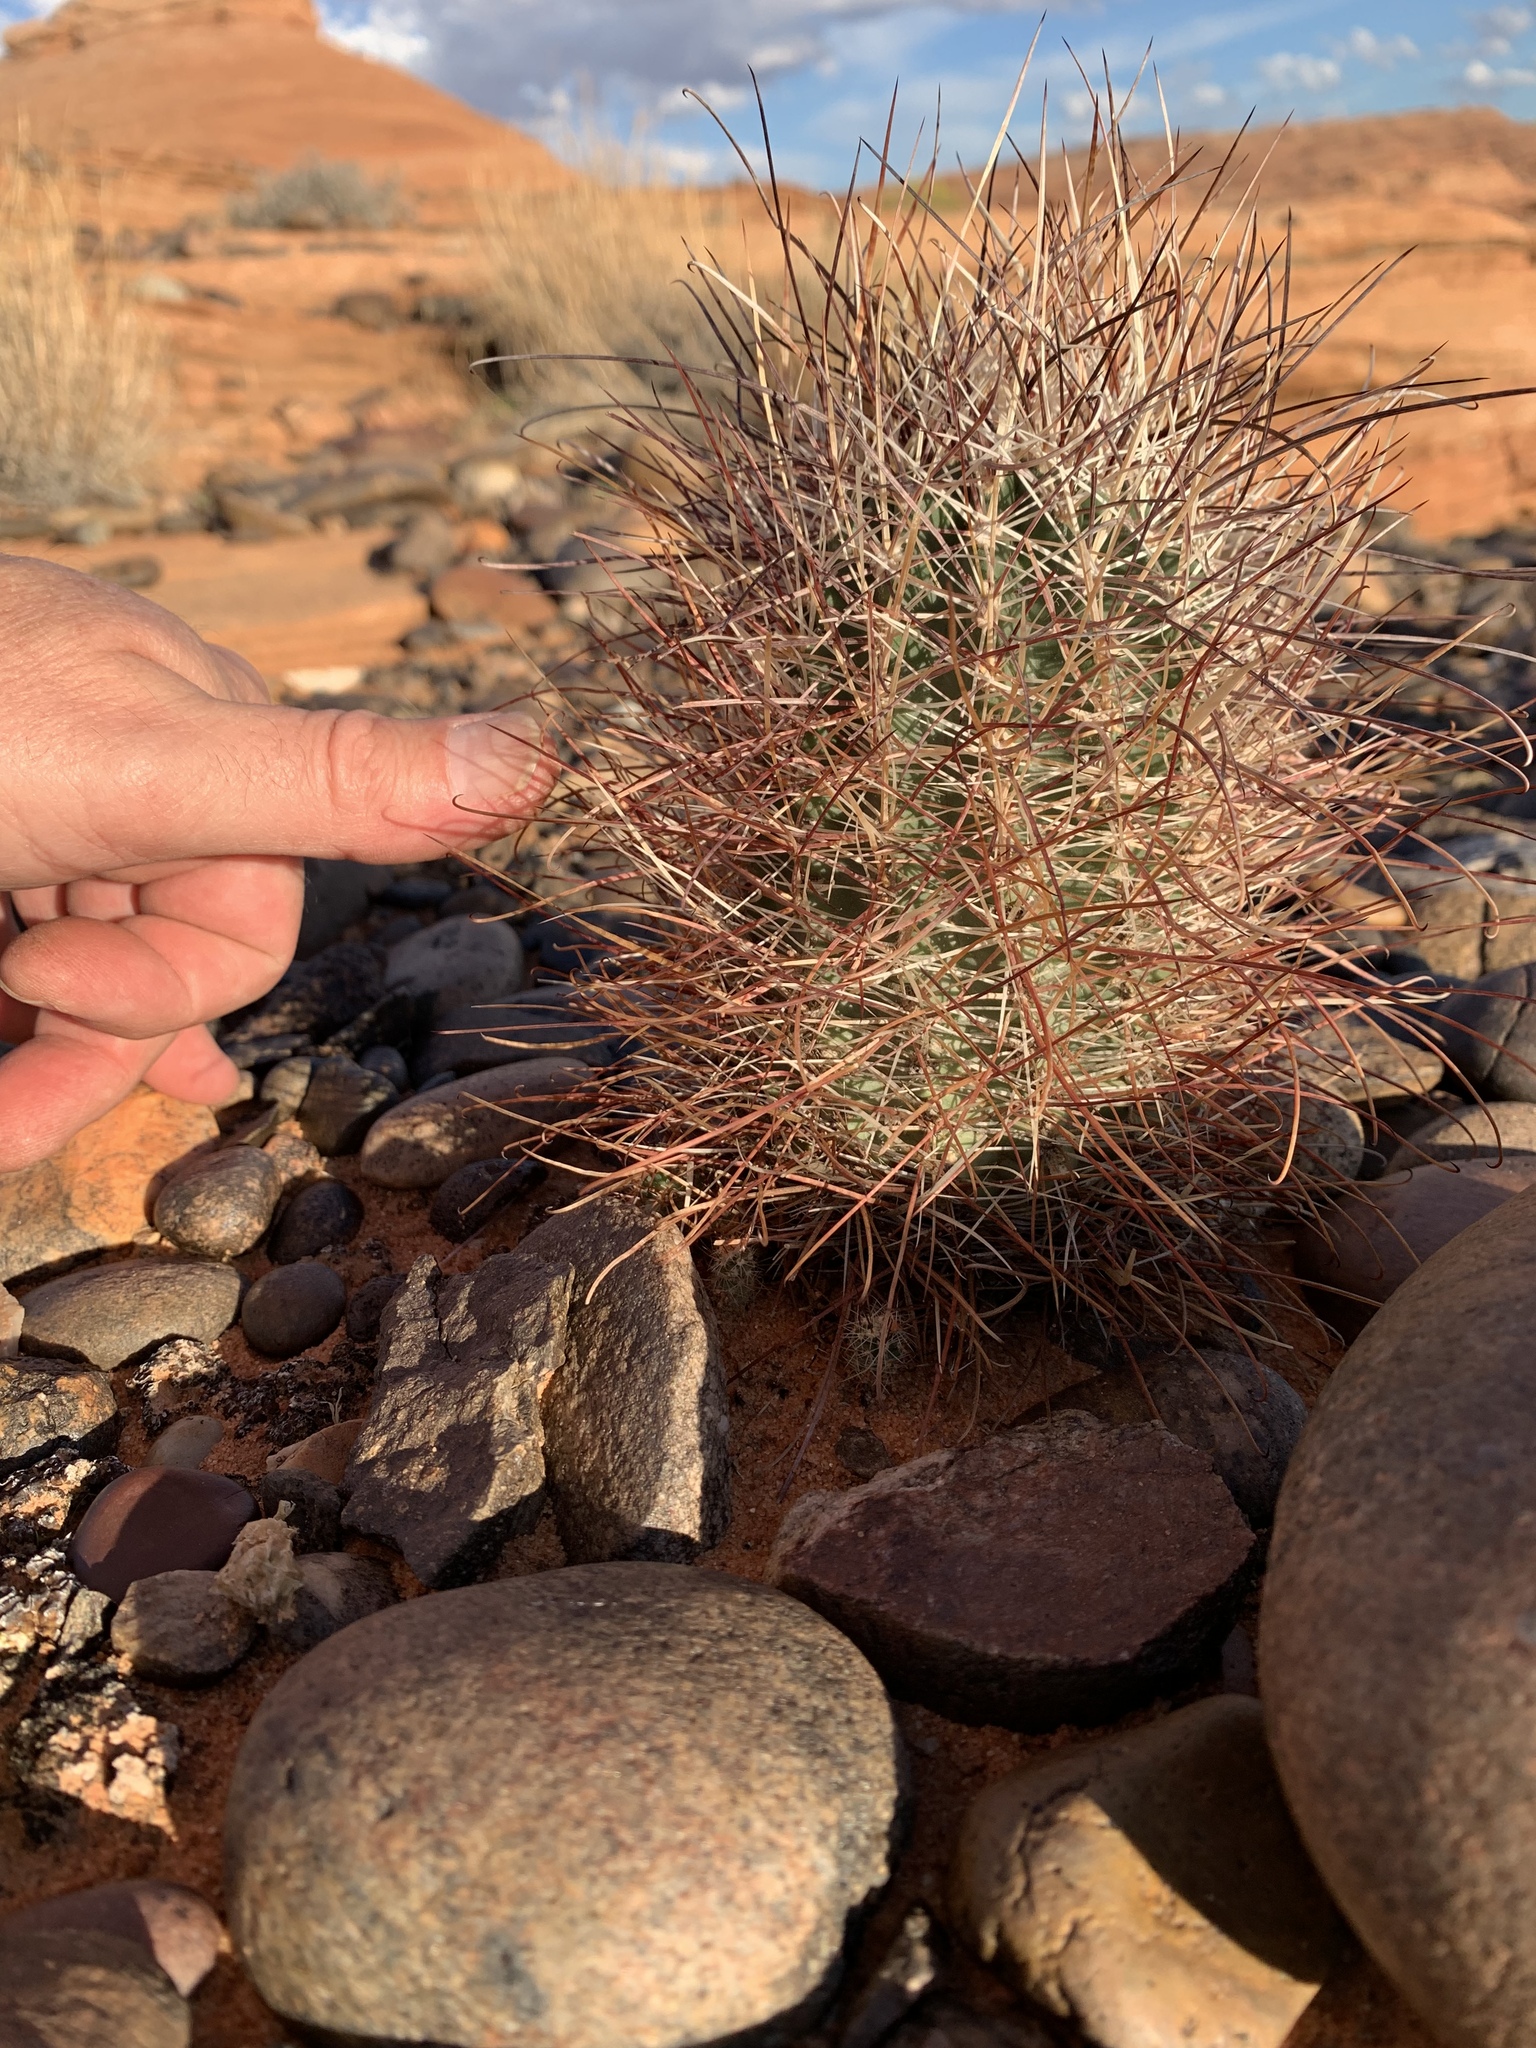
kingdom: Plantae
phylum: Tracheophyta
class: Magnoliopsida
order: Caryophyllales
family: Cactaceae
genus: Sclerocactus
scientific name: Sclerocactus parviflorus
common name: Small-flower fishhook cactus
